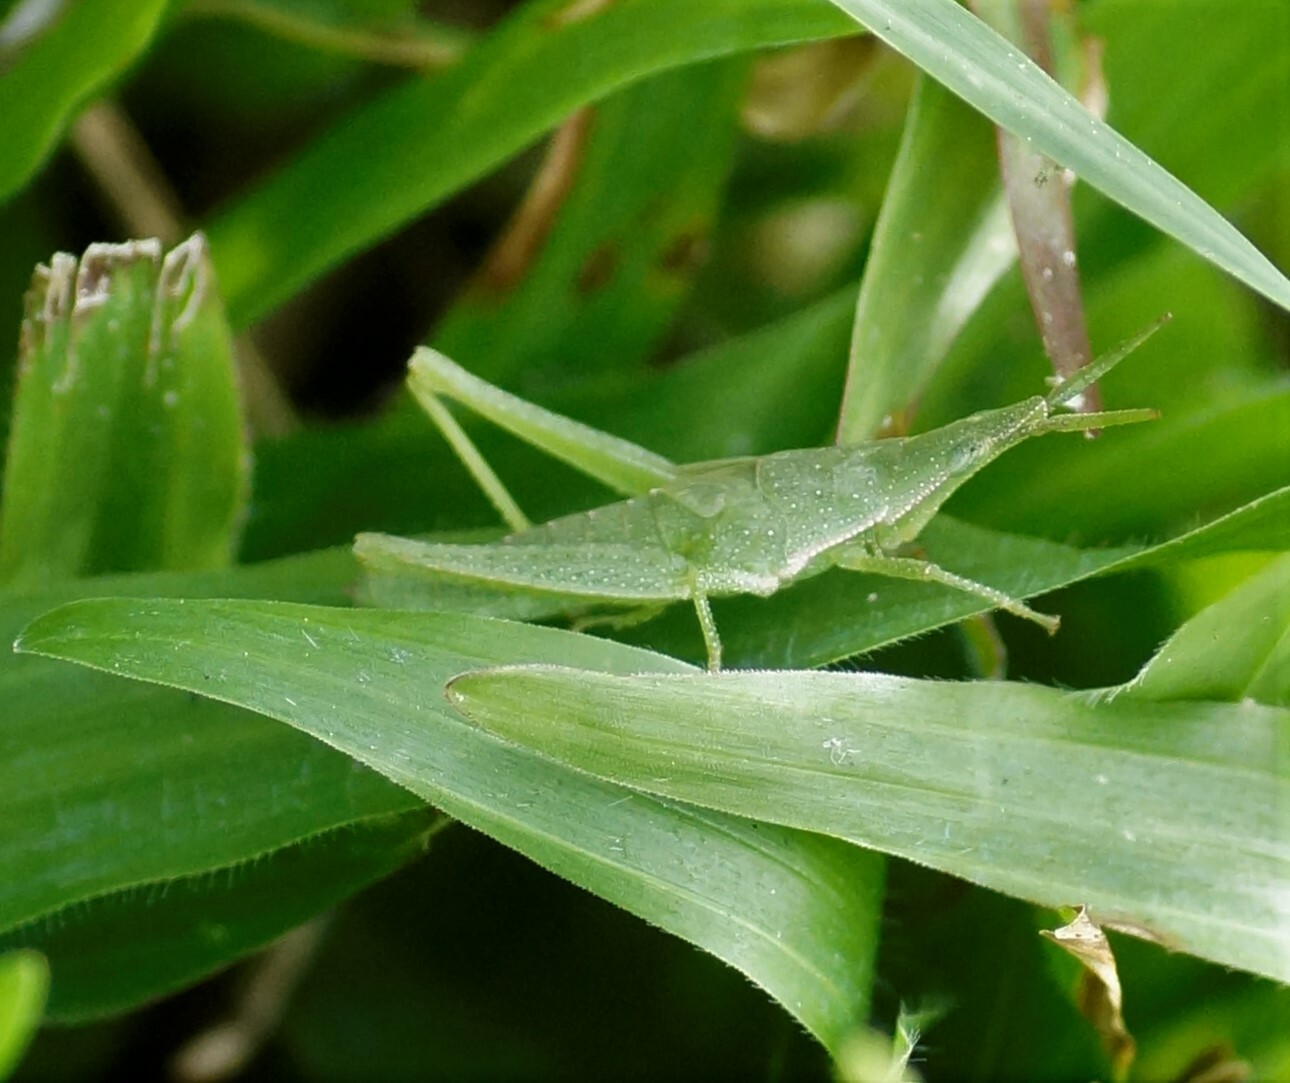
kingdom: Animalia
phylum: Arthropoda
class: Insecta
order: Orthoptera
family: Pyrgomorphidae
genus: Atractomorpha
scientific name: Atractomorpha similis
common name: Northern grass pyrgomorph
